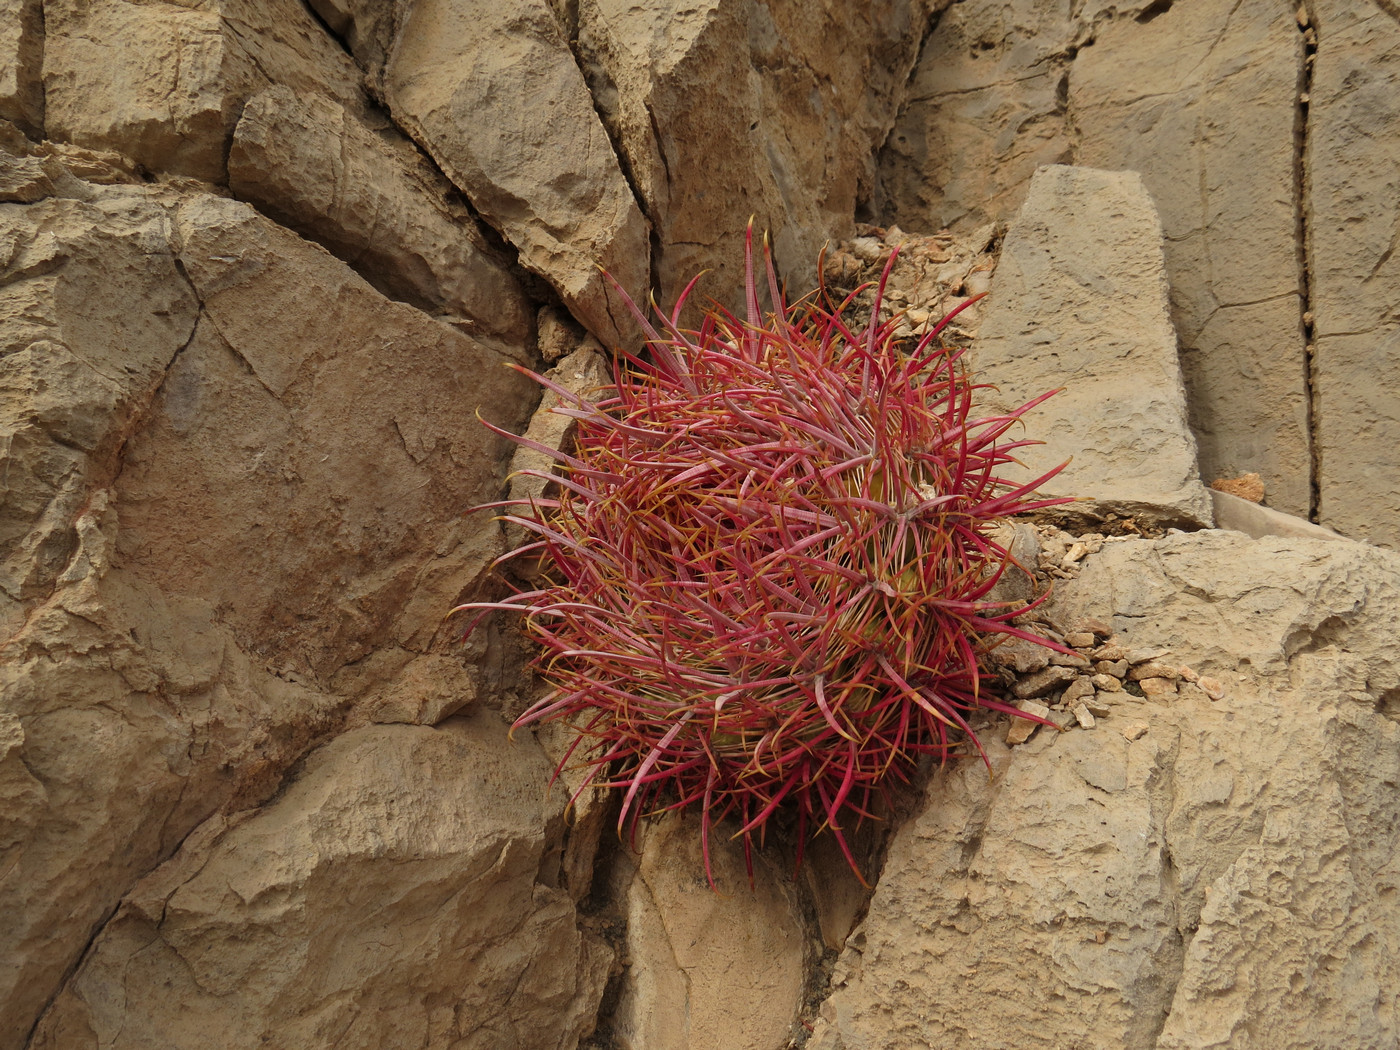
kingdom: Plantae
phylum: Tracheophyta
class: Magnoliopsida
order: Caryophyllales
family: Cactaceae
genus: Ferocactus
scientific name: Ferocactus cylindraceus
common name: California barrel cactus
